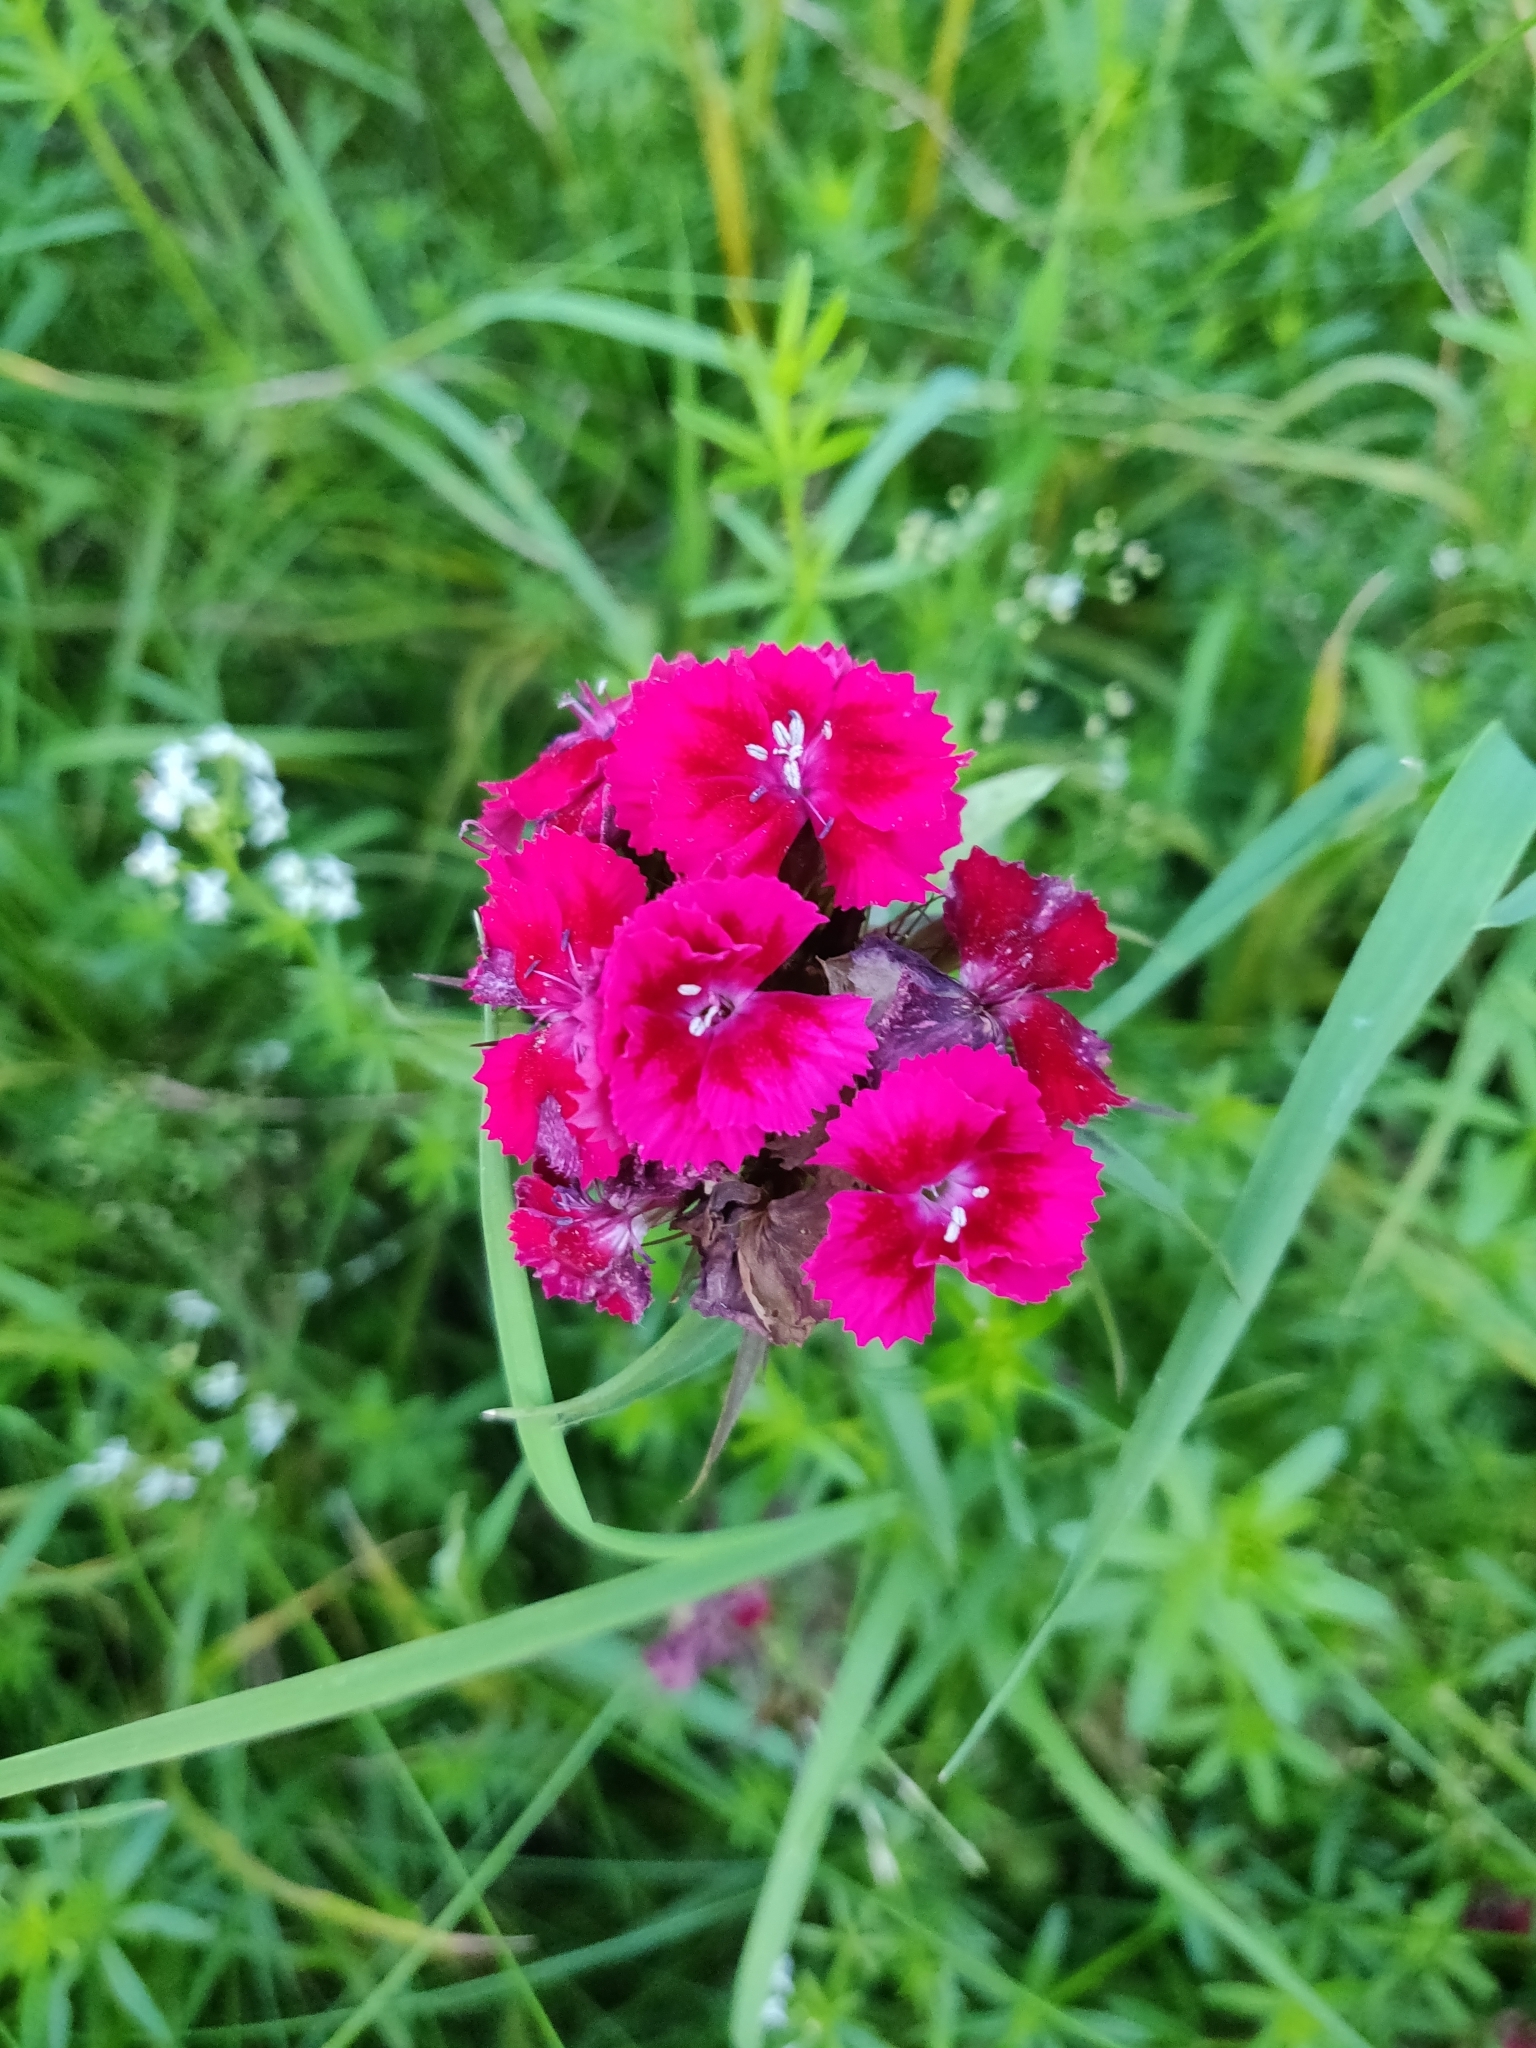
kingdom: Plantae
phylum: Tracheophyta
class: Magnoliopsida
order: Caryophyllales
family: Caryophyllaceae
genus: Dianthus
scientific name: Dianthus barbatus
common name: Sweet-william
